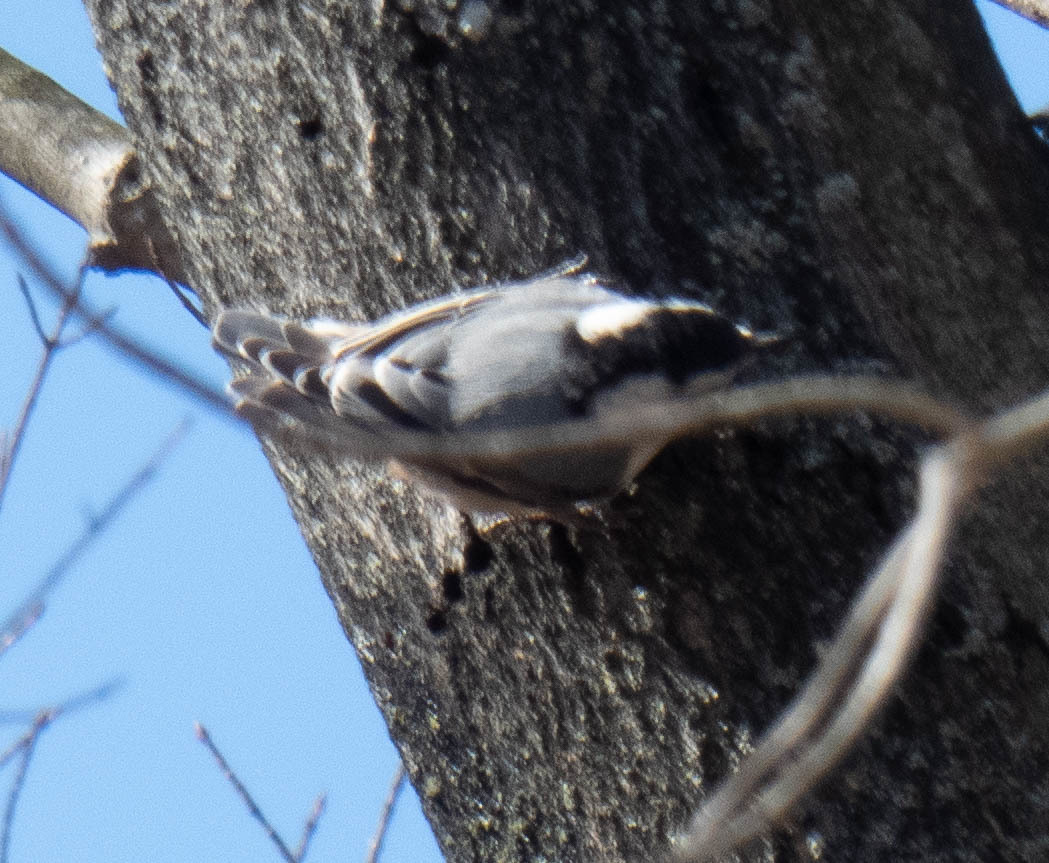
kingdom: Animalia
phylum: Chordata
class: Aves
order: Passeriformes
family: Sittidae
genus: Sitta
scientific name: Sitta carolinensis
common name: White-breasted nuthatch
